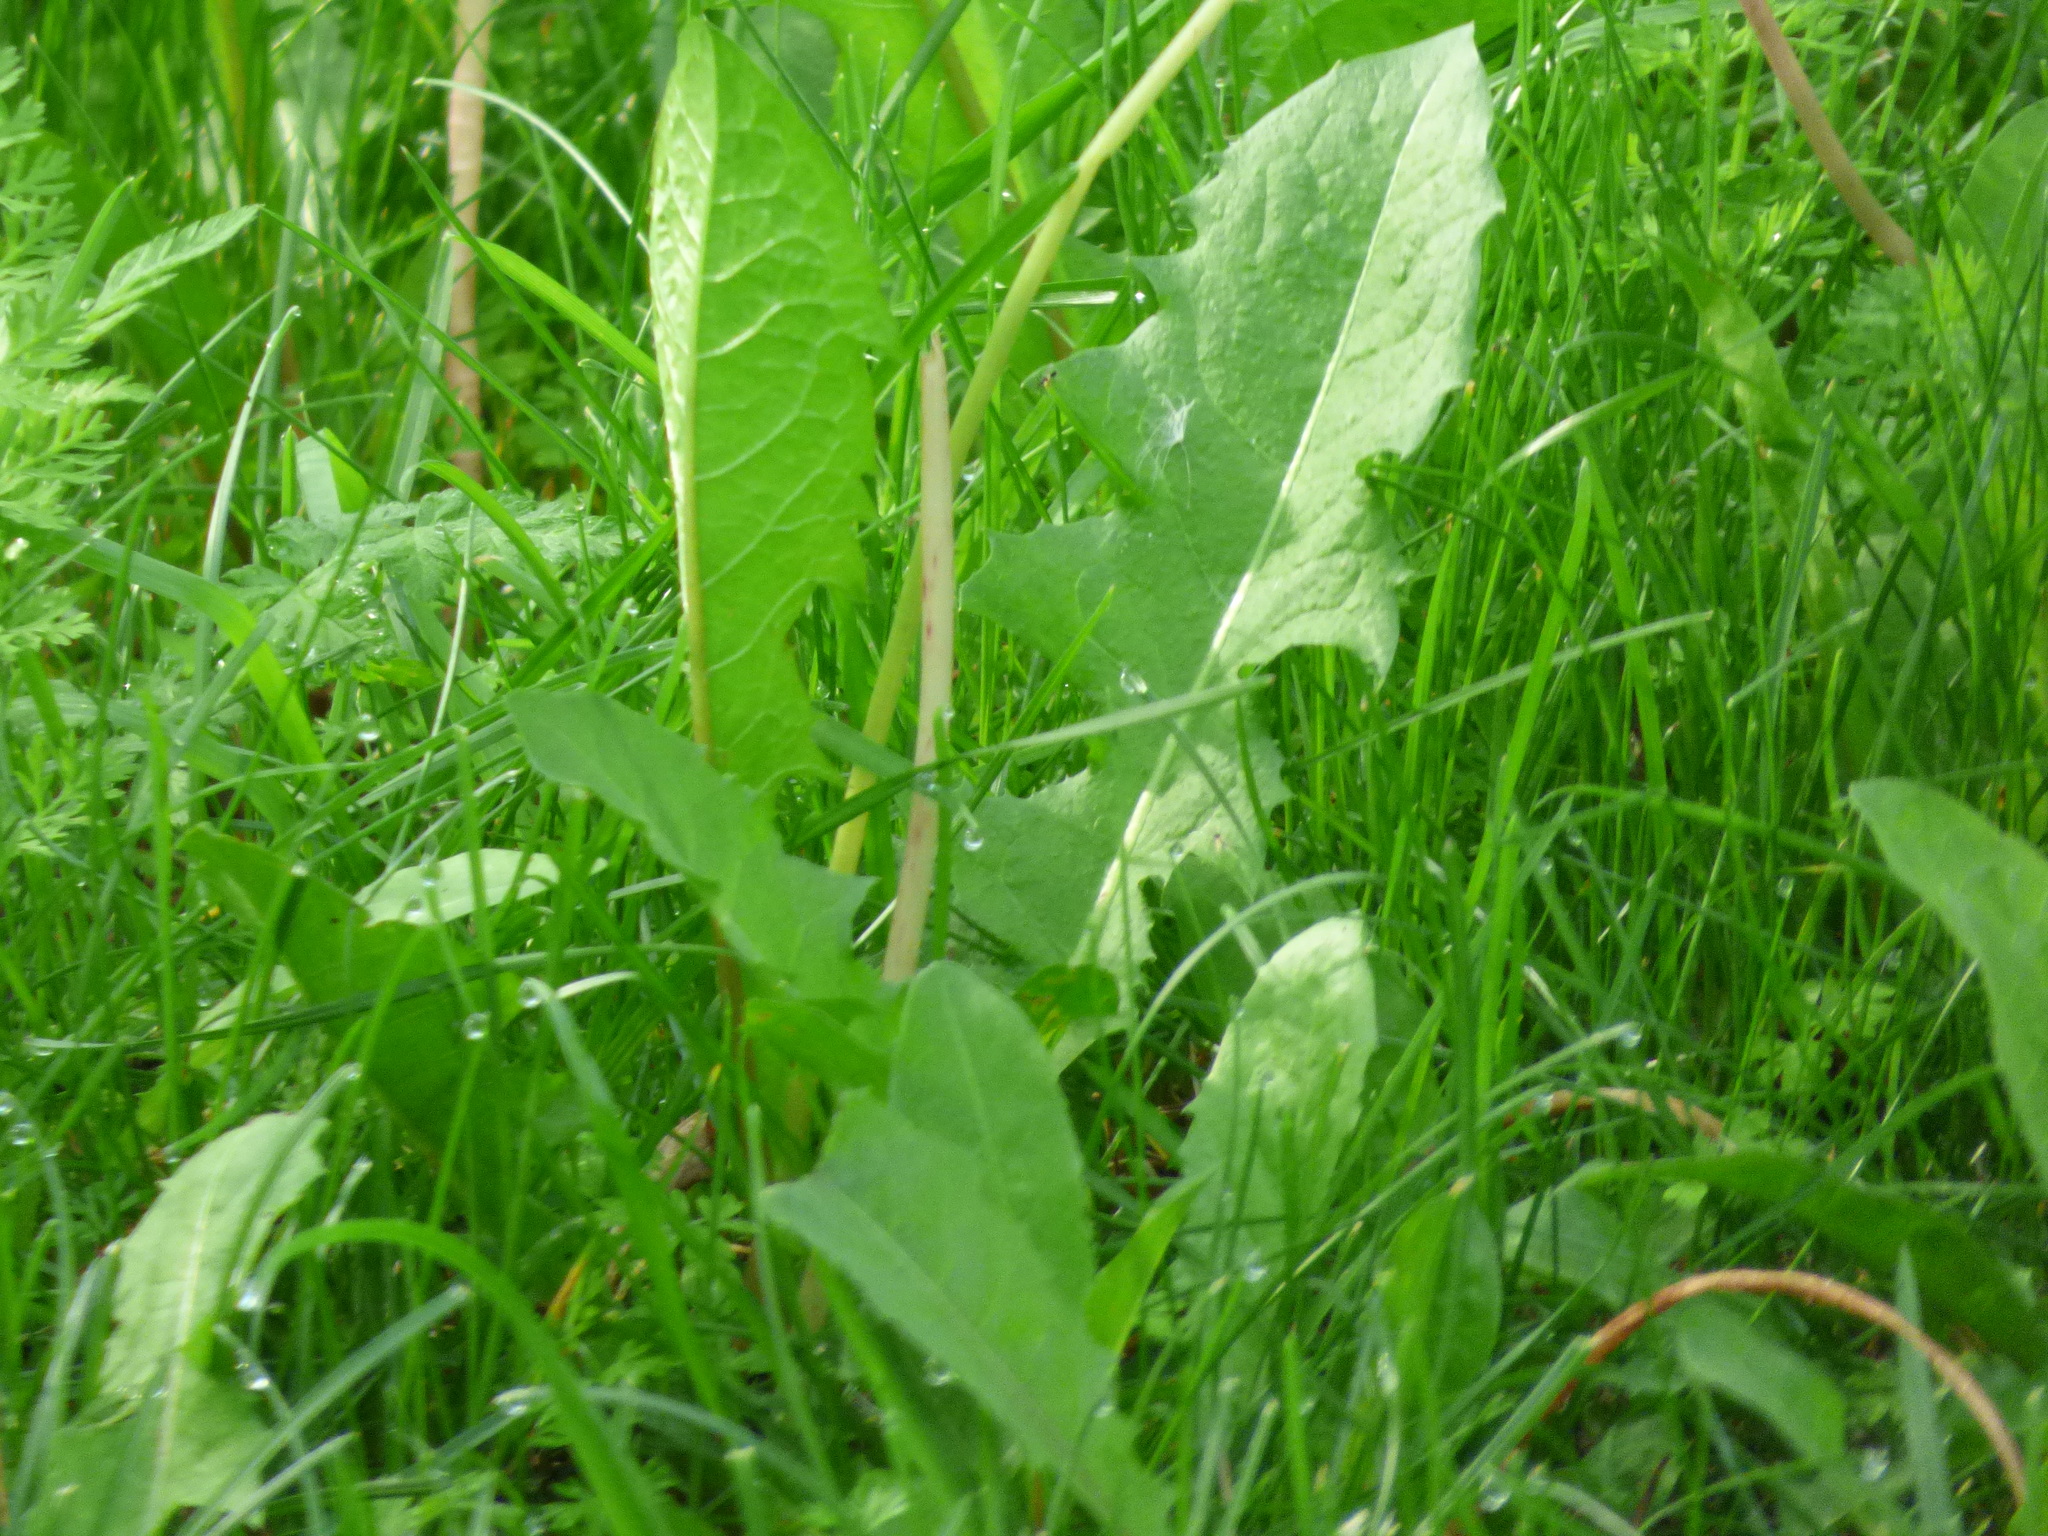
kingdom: Plantae
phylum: Tracheophyta
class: Magnoliopsida
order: Asterales
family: Asteraceae
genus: Taraxacum
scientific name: Taraxacum officinale
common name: Common dandelion
